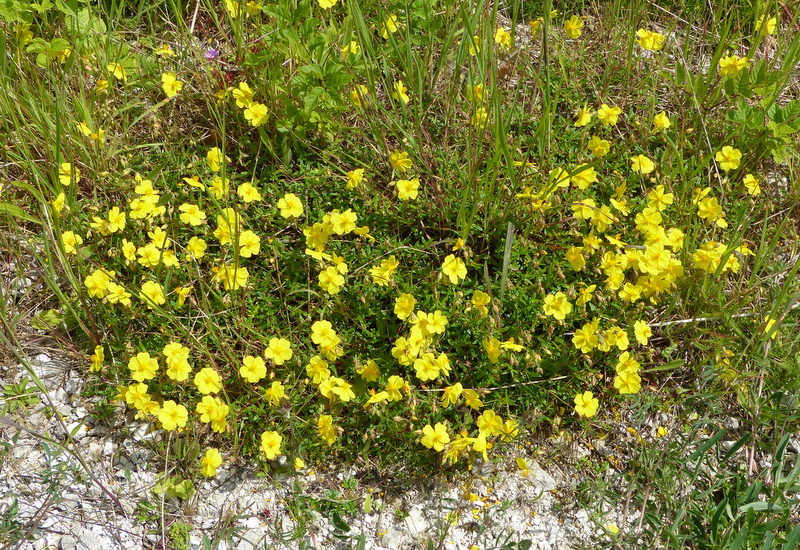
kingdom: Plantae
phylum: Tracheophyta
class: Magnoliopsida
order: Malvales
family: Cistaceae
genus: Helianthemum
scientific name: Helianthemum nummularium
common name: Common rock-rose
